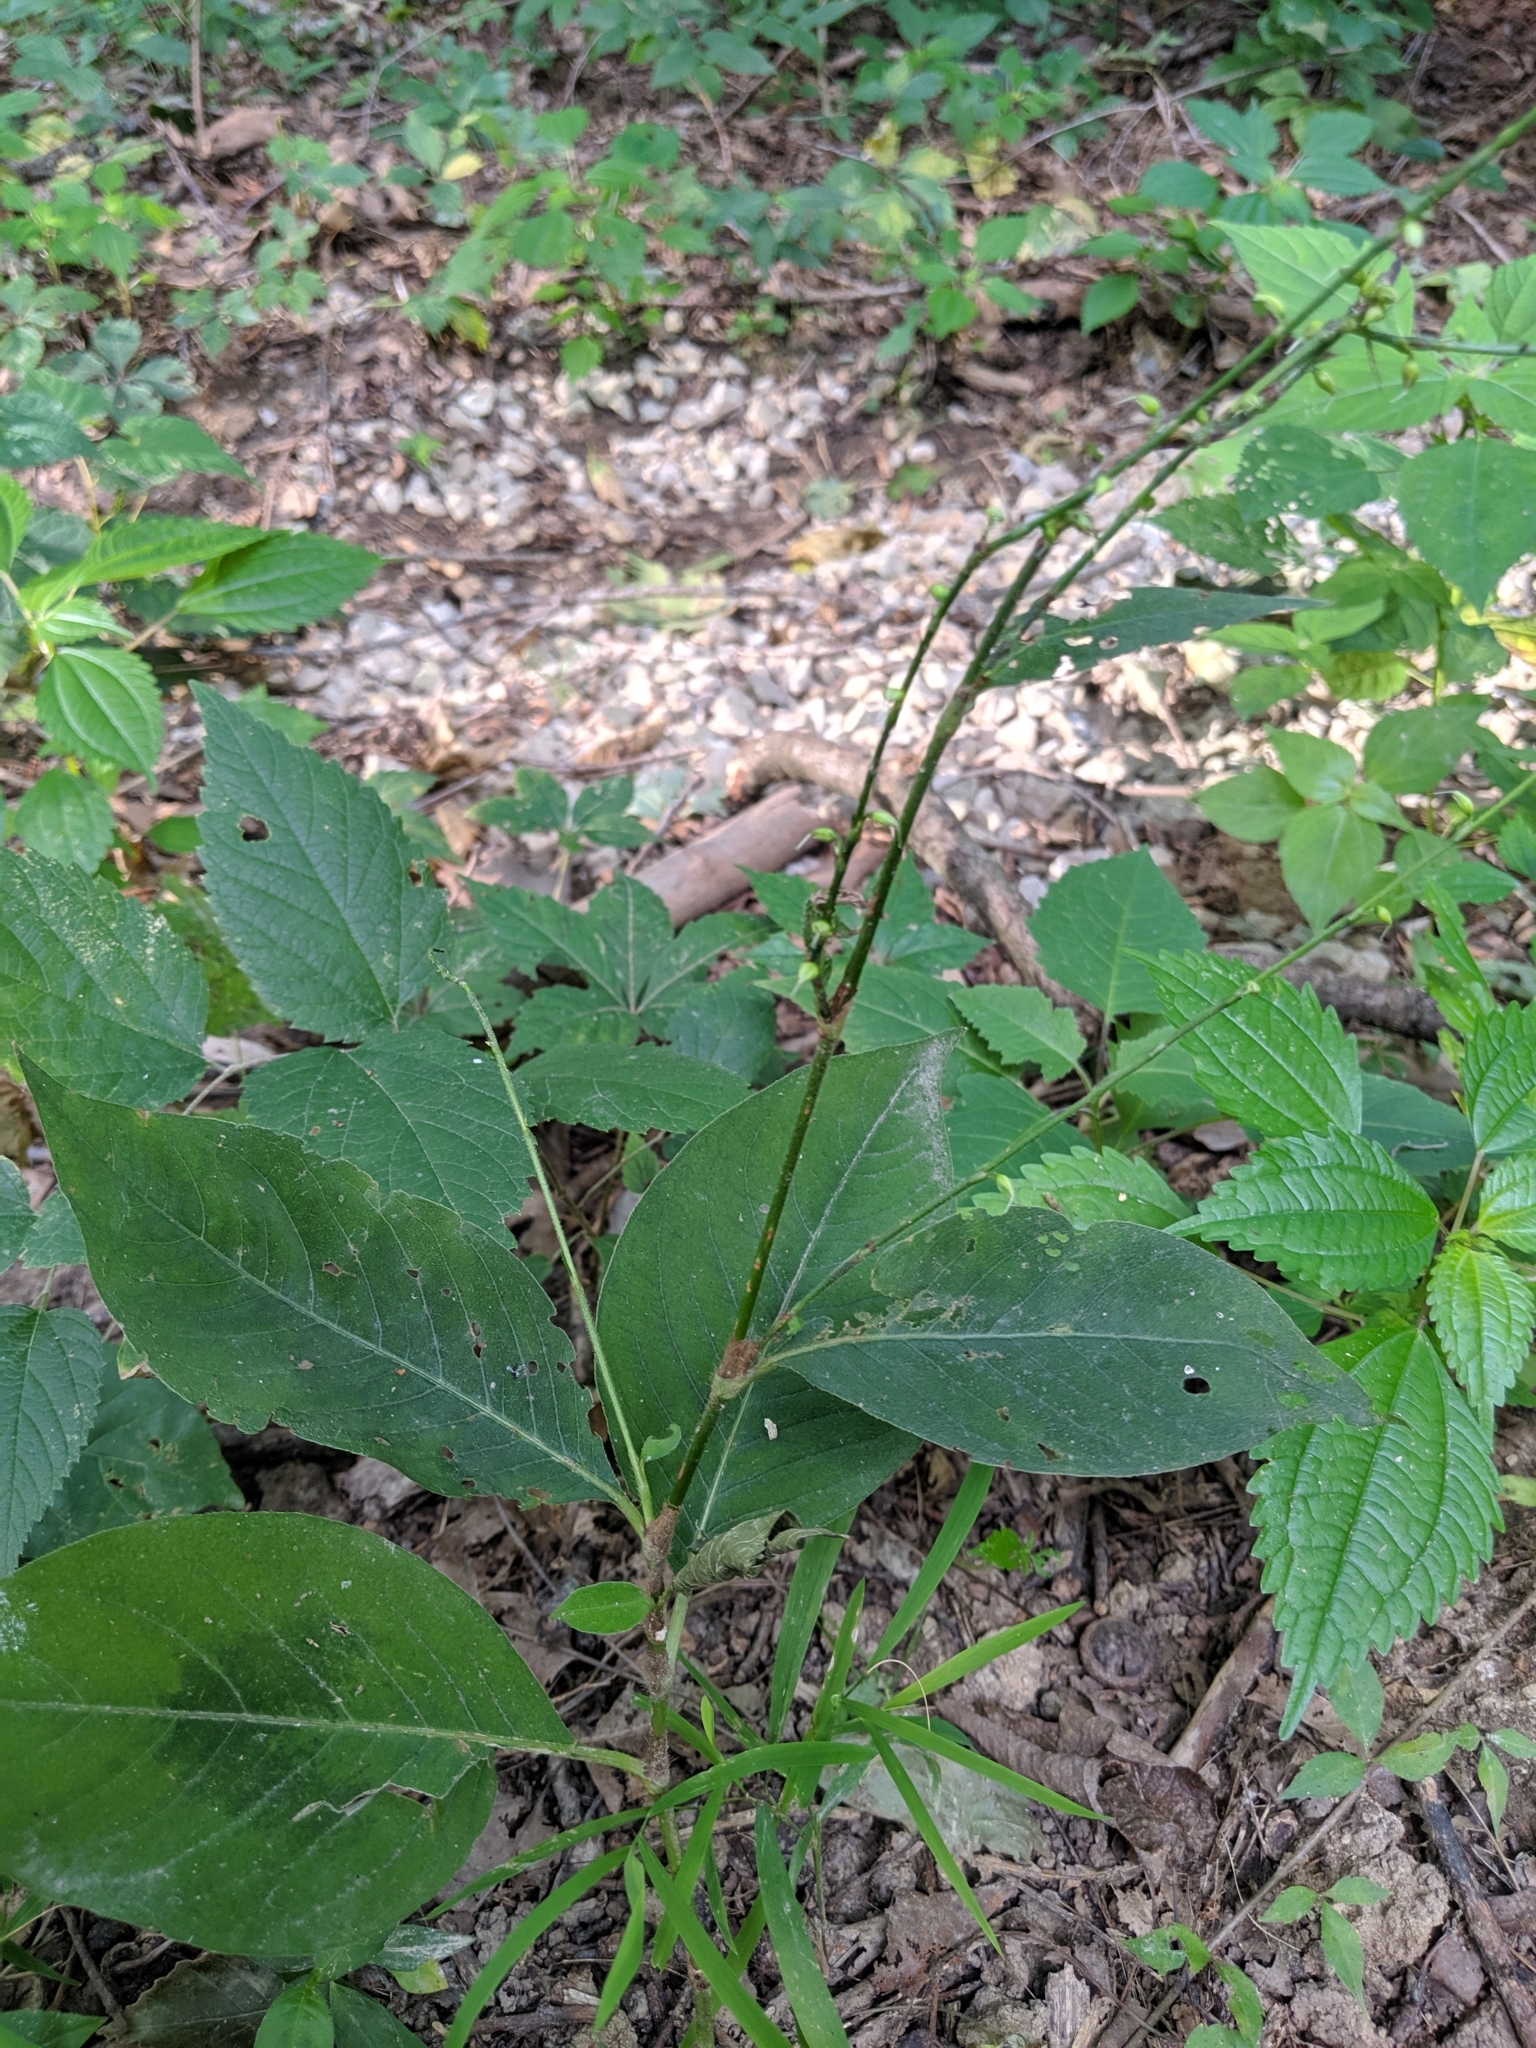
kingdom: Plantae
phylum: Tracheophyta
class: Magnoliopsida
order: Caryophyllales
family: Polygonaceae
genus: Persicaria
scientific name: Persicaria virginiana
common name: Jumpseed
